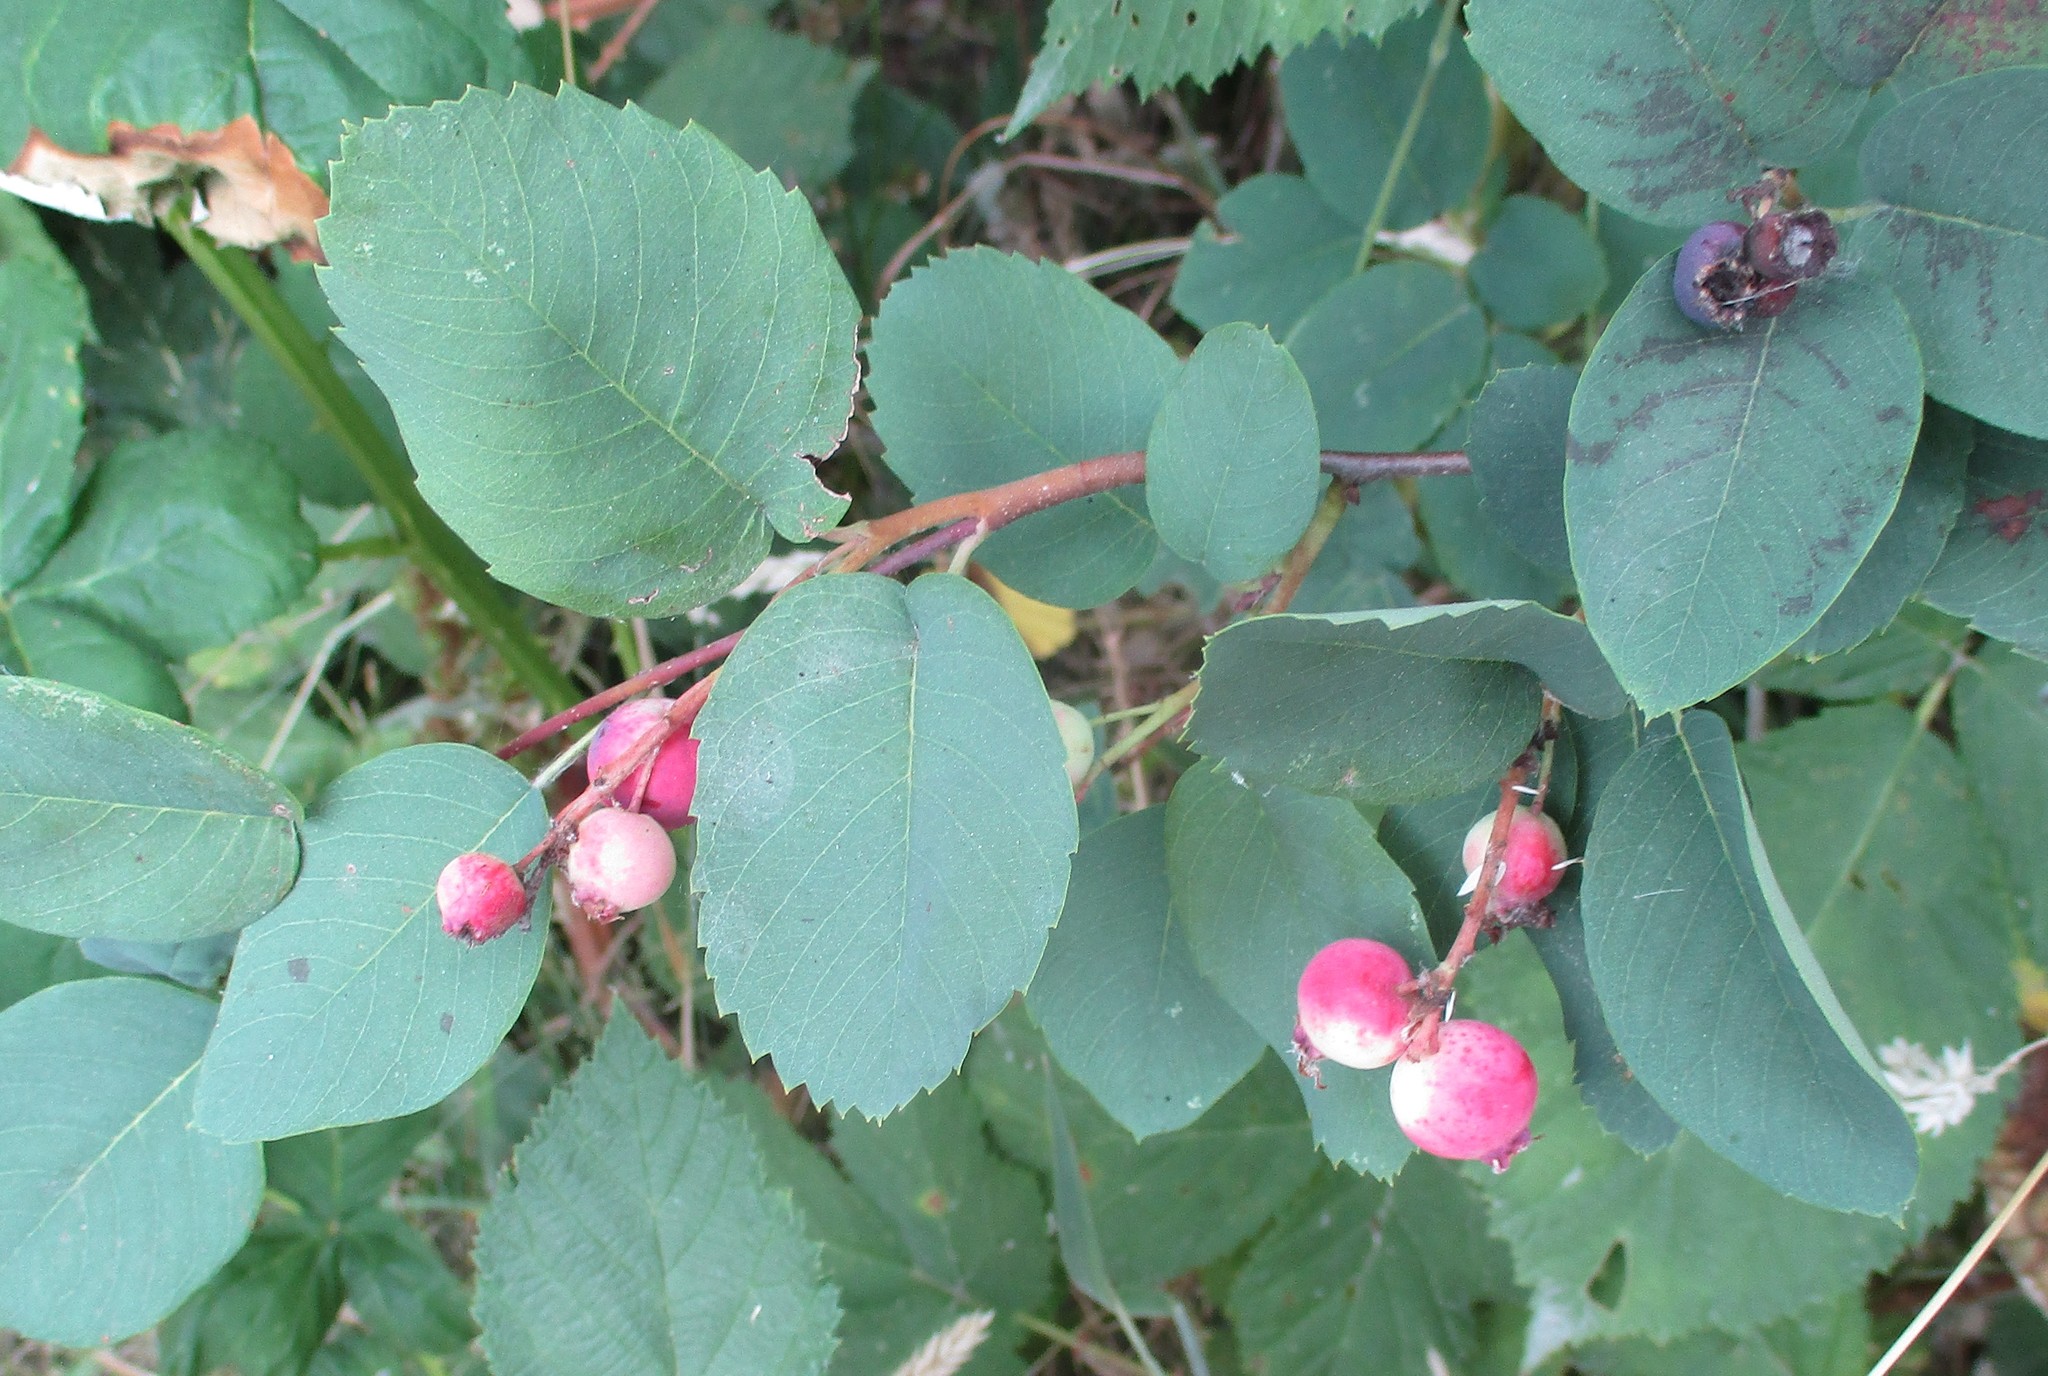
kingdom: Plantae
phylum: Tracheophyta
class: Magnoliopsida
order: Rosales
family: Rosaceae
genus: Amelanchier
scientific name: Amelanchier alnifolia
